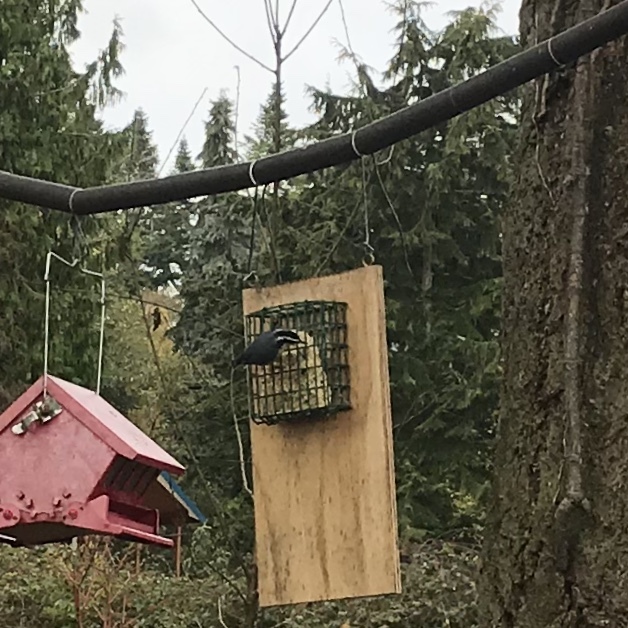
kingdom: Animalia
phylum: Chordata
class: Aves
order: Passeriformes
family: Sittidae
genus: Sitta
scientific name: Sitta canadensis
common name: Red-breasted nuthatch
